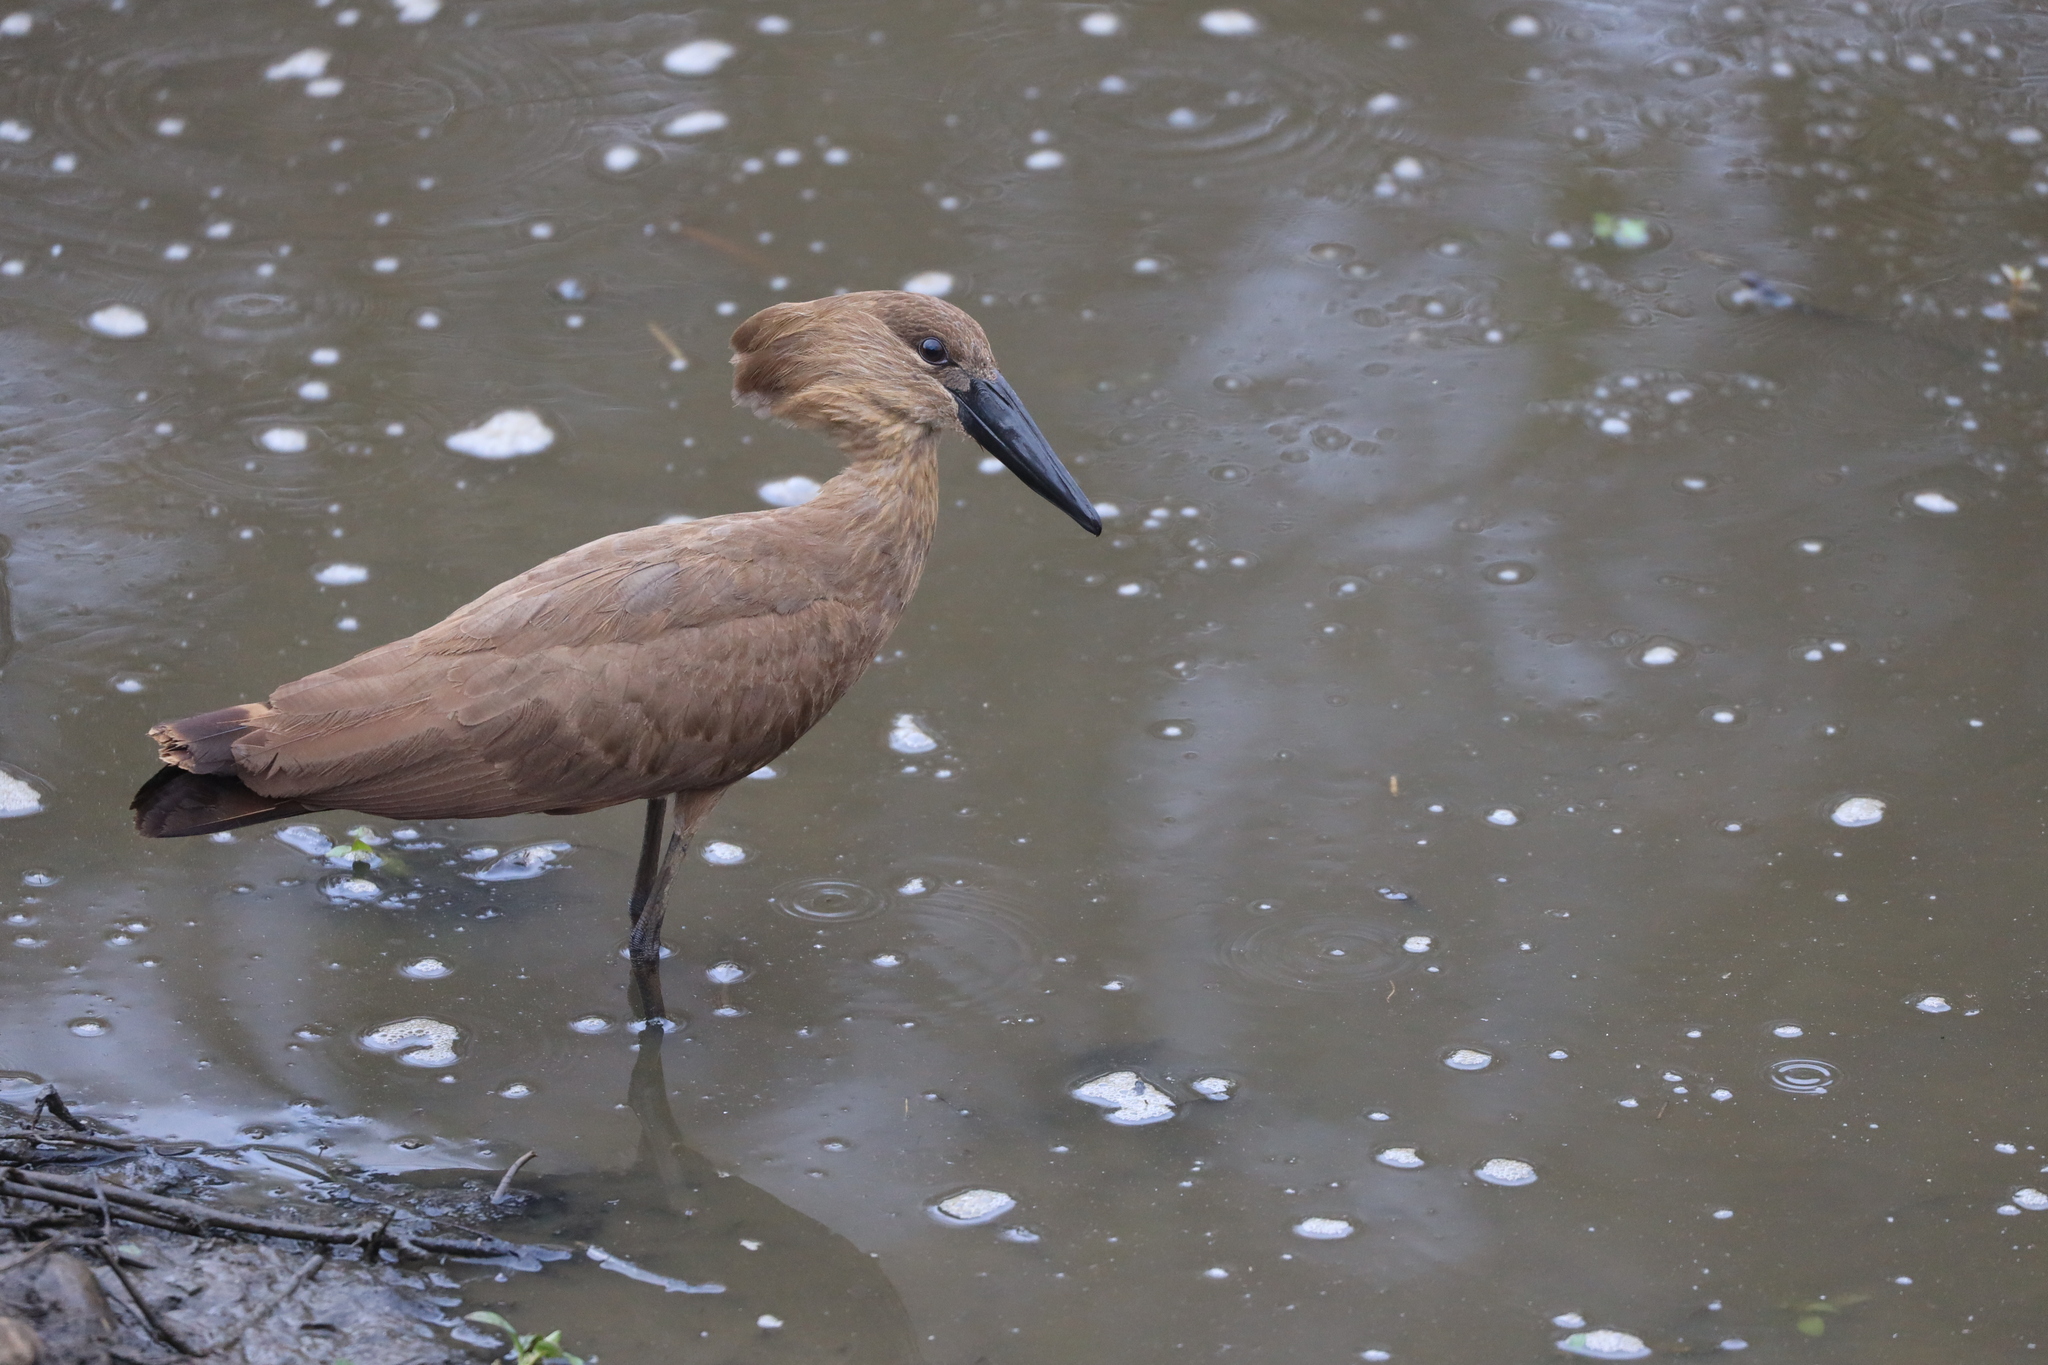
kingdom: Animalia
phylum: Chordata
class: Aves
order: Pelecaniformes
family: Scopidae
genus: Scopus
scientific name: Scopus umbretta
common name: Hamerkop
